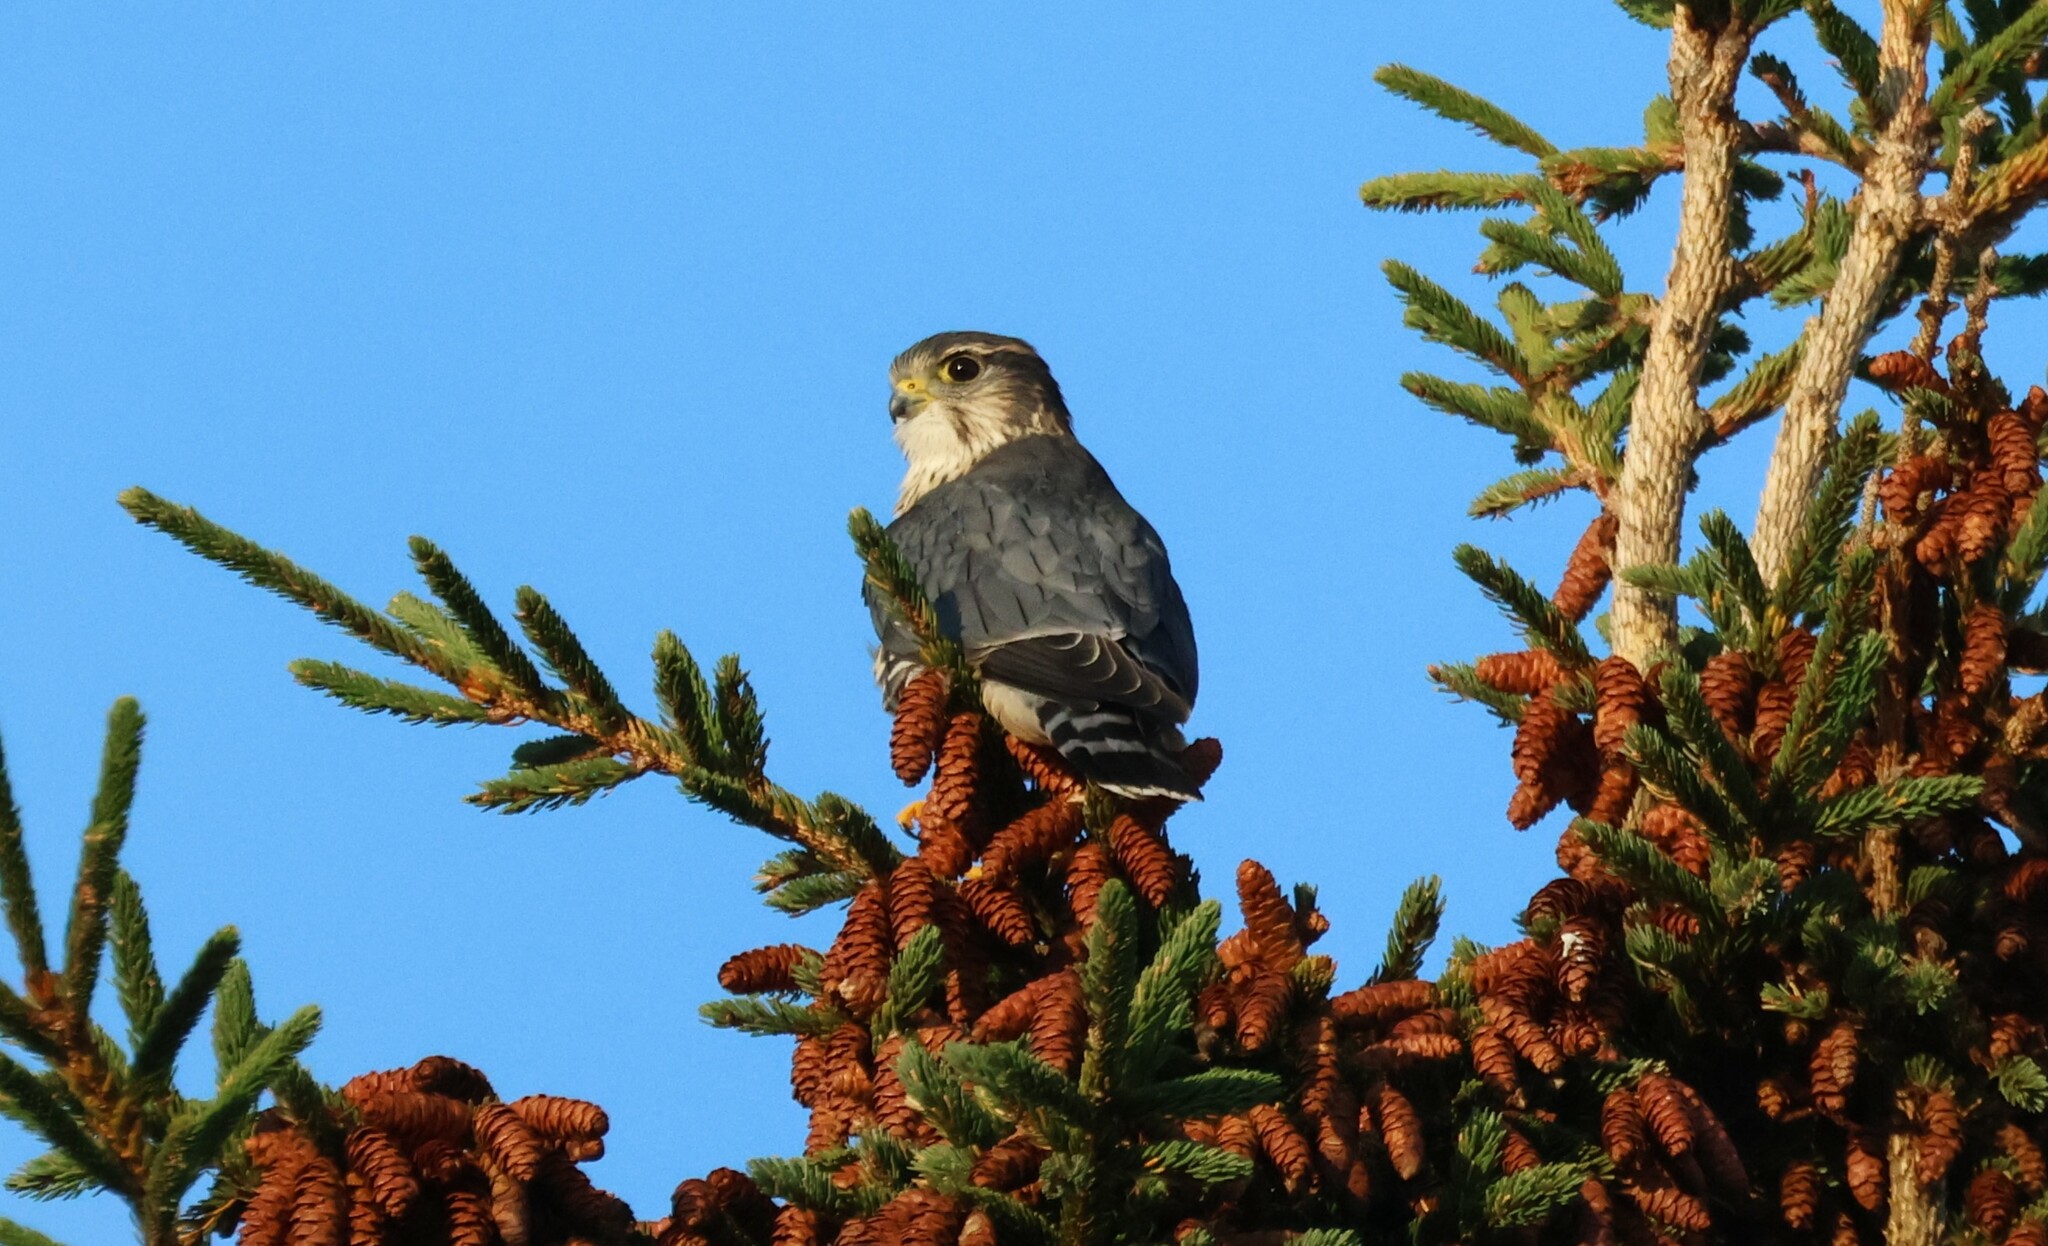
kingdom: Animalia
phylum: Chordata
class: Aves
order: Falconiformes
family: Falconidae
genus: Falco
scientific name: Falco columbarius
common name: Merlin
